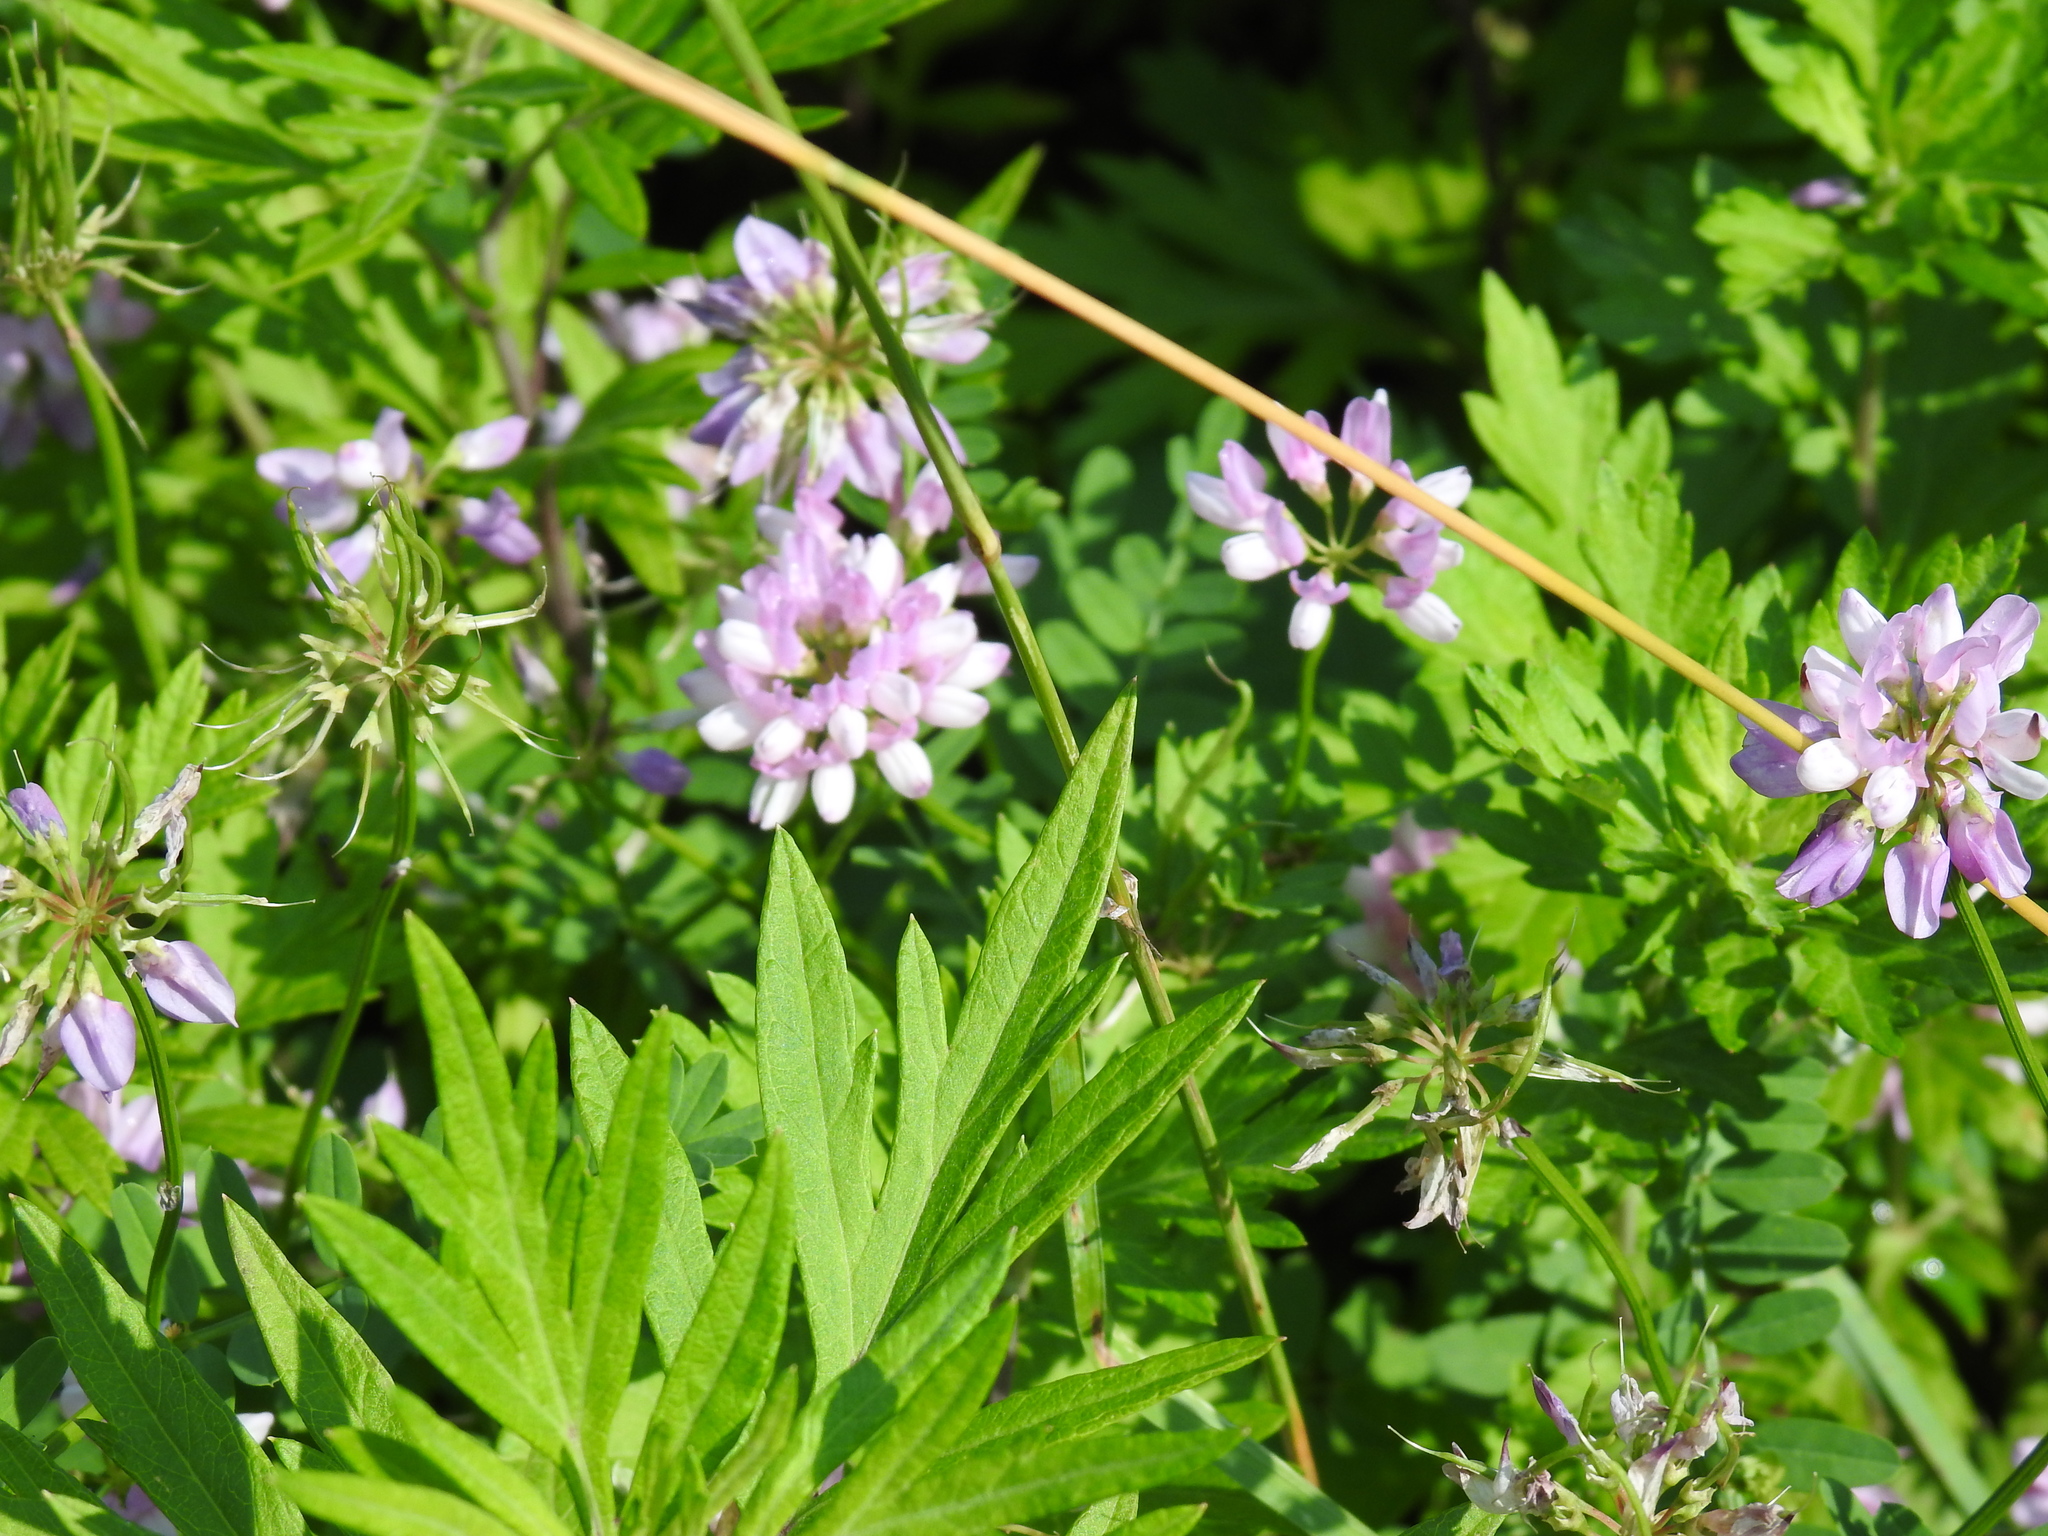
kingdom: Plantae
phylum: Tracheophyta
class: Magnoliopsida
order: Fabales
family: Fabaceae
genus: Coronilla
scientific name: Coronilla varia
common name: Crownvetch
